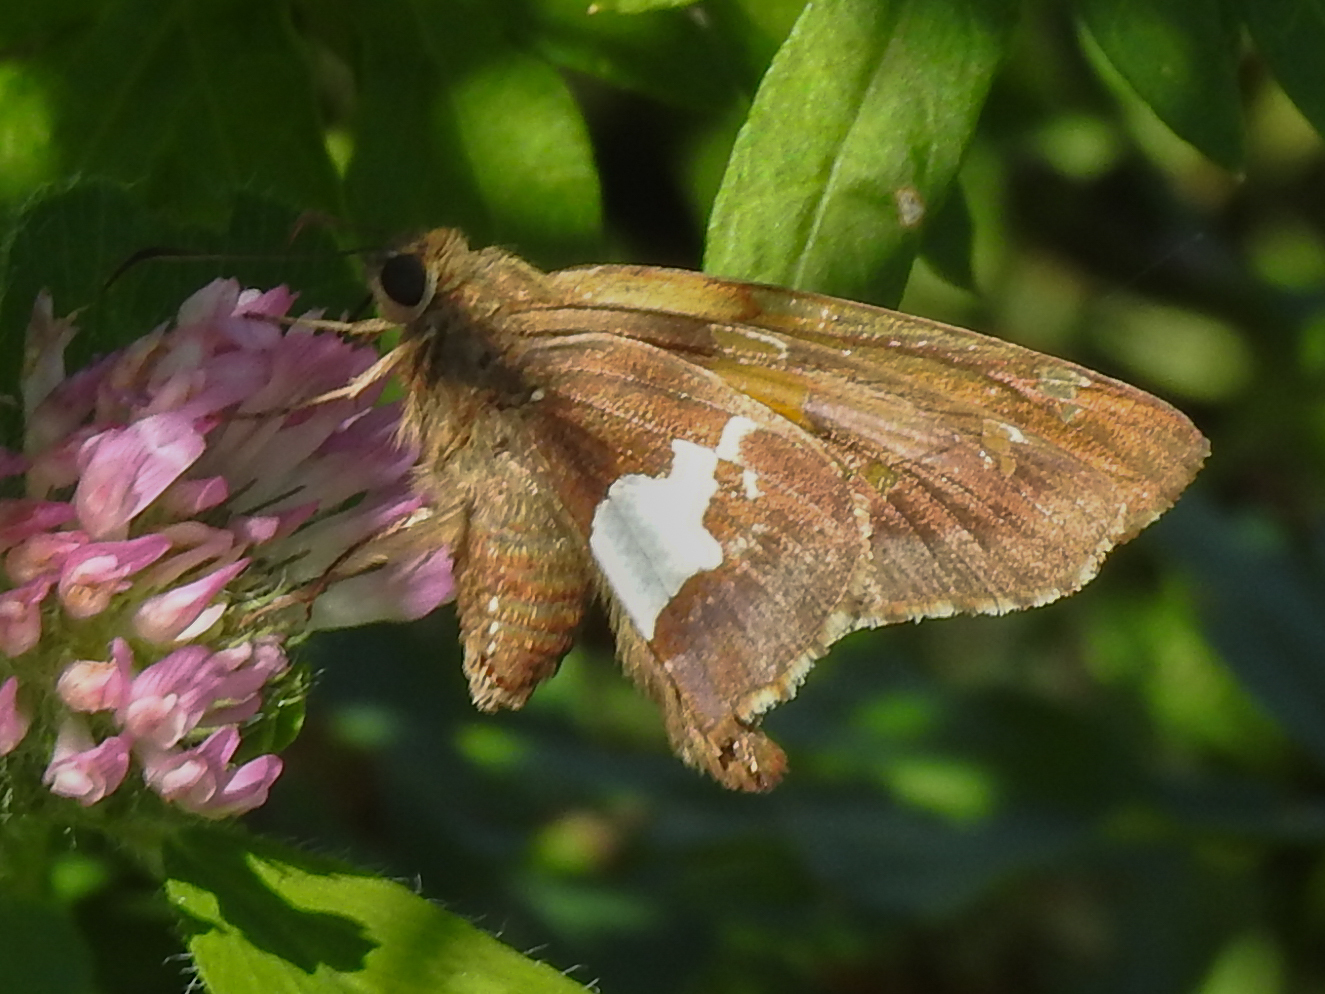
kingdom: Animalia
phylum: Arthropoda
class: Insecta
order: Lepidoptera
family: Hesperiidae
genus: Epargyreus
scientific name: Epargyreus clarus
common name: Silver-spotted skipper
